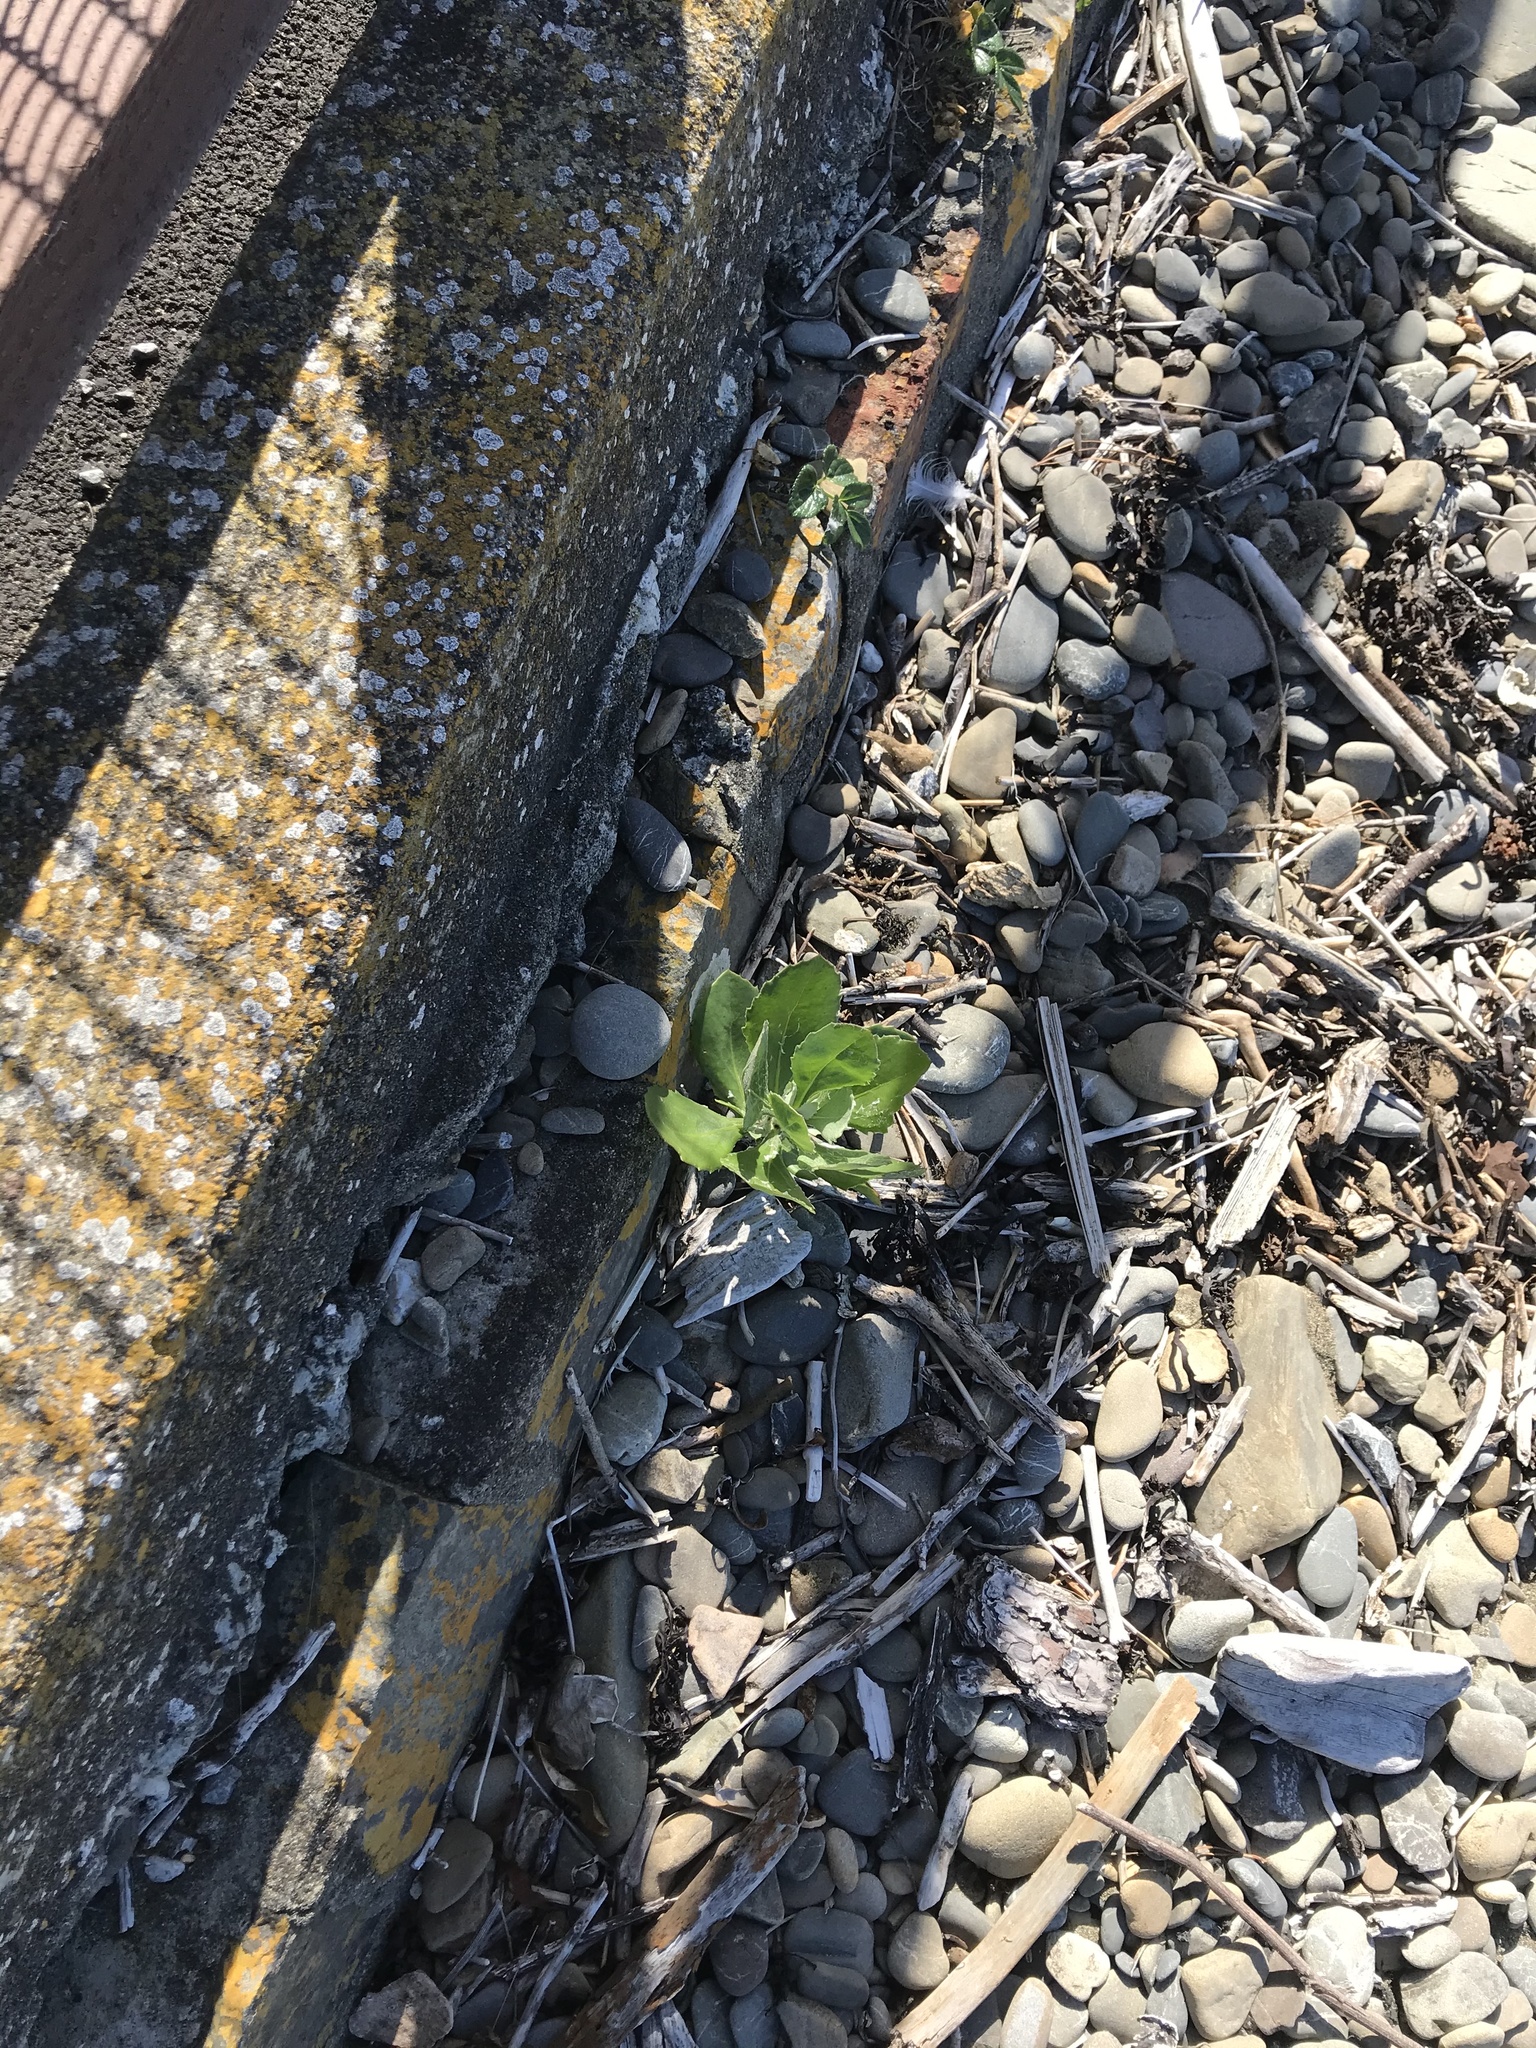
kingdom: Plantae
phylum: Tracheophyta
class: Magnoliopsida
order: Asterales
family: Asteraceae
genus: Osteospermum
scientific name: Osteospermum moniliferum
